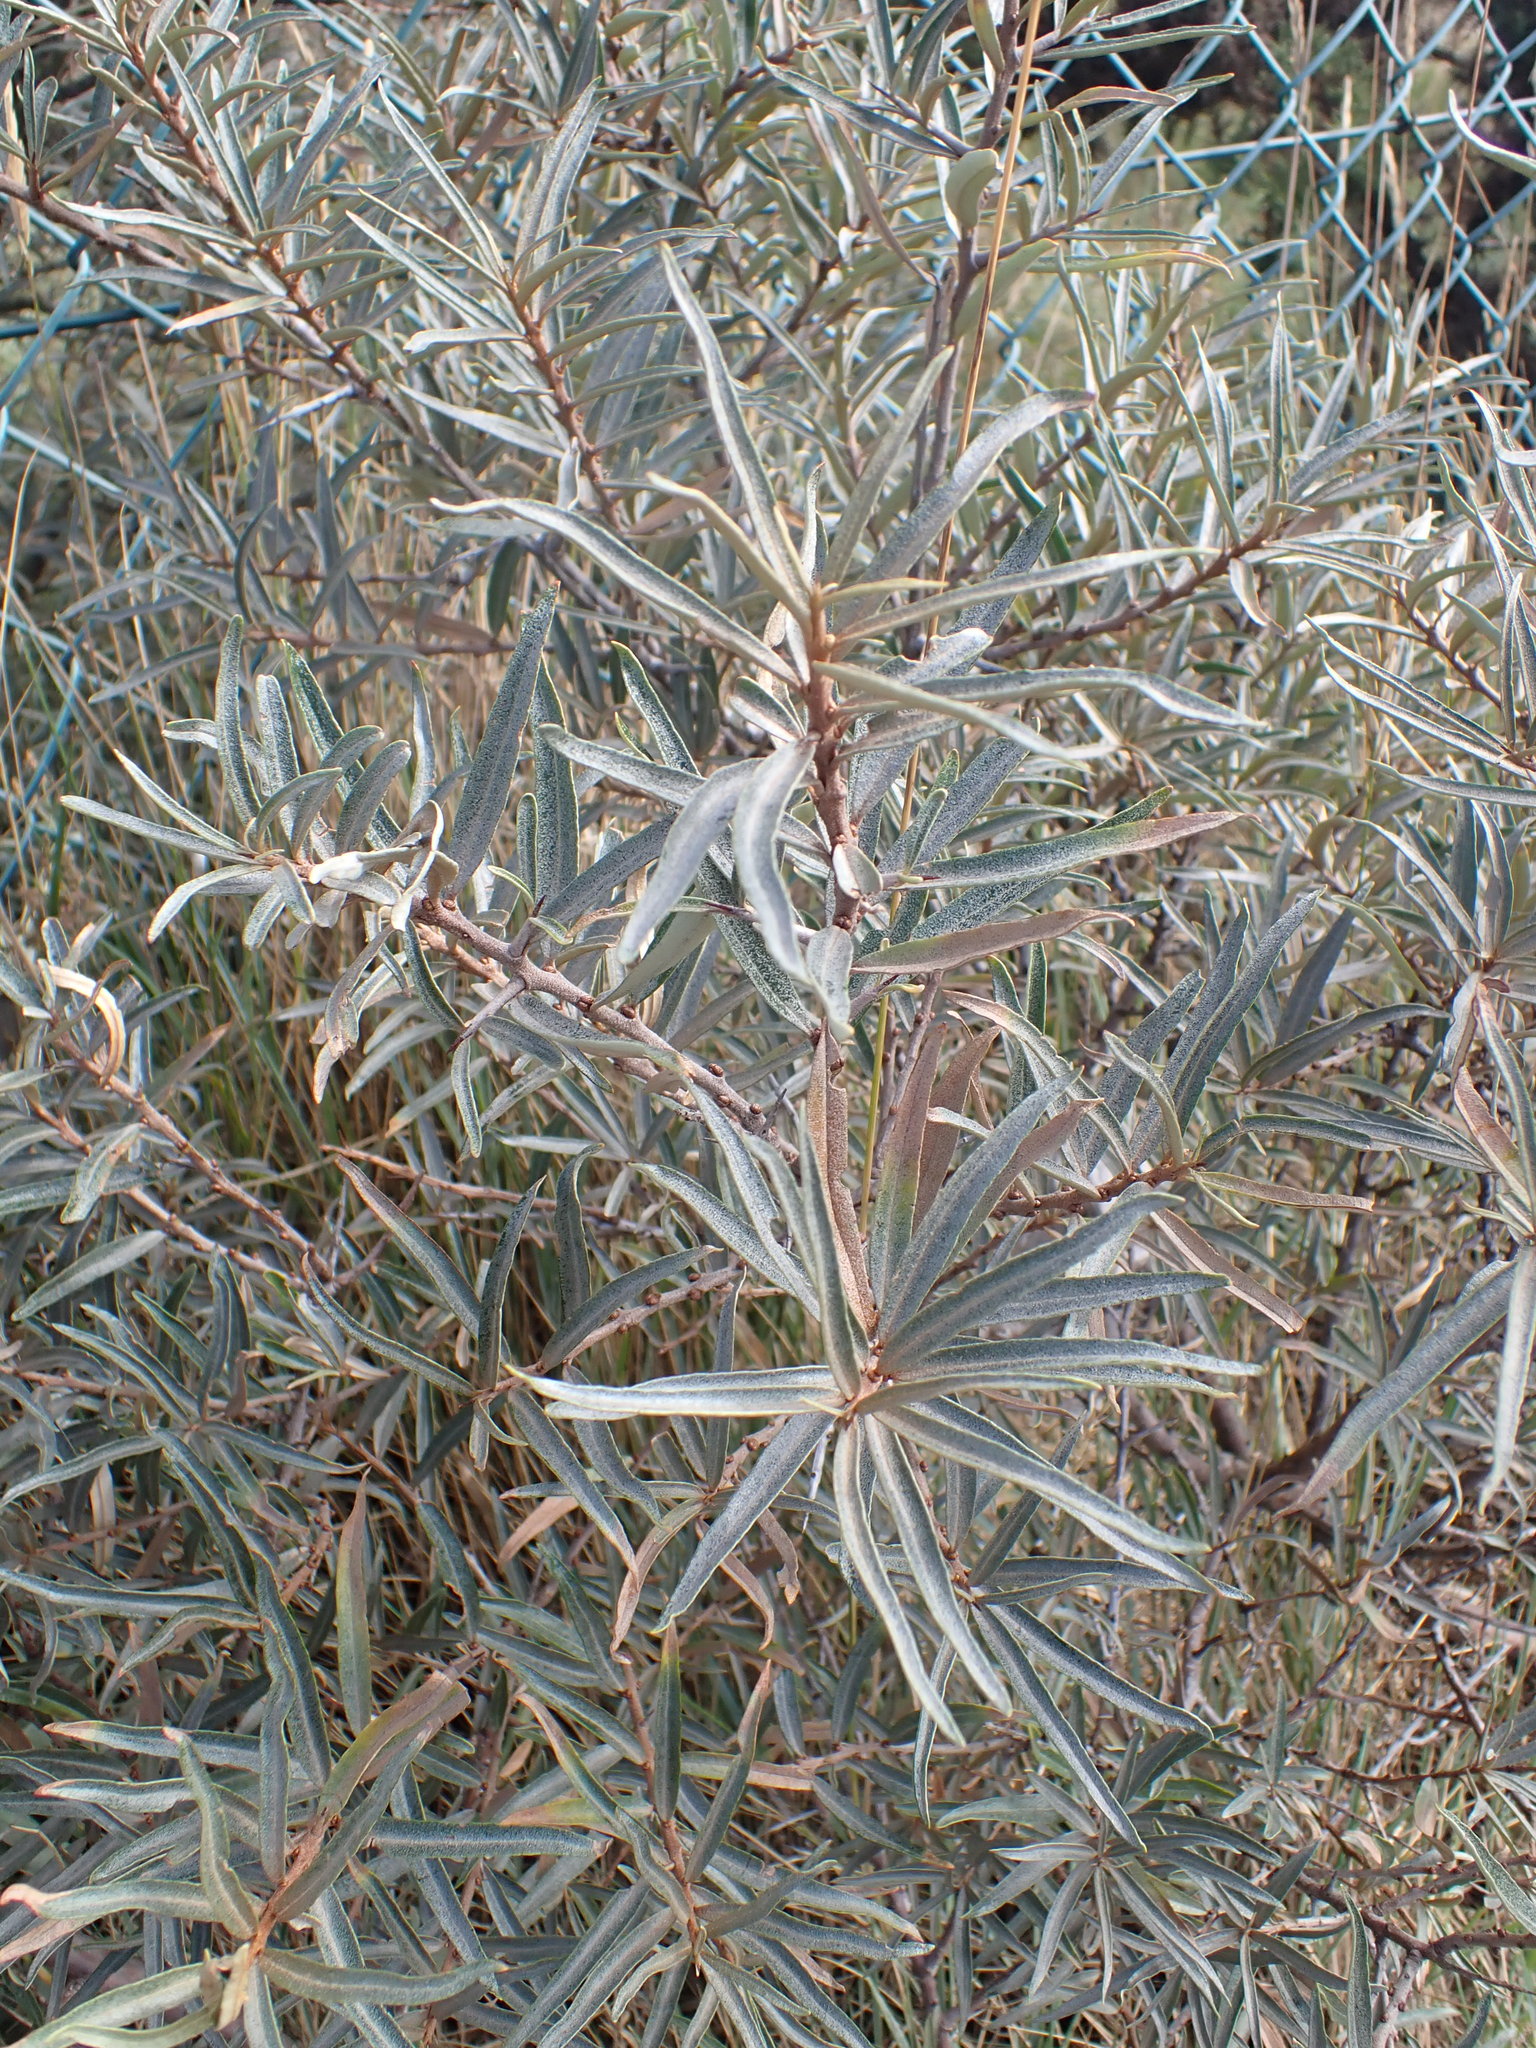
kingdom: Plantae
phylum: Tracheophyta
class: Magnoliopsida
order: Rosales
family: Elaeagnaceae
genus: Hippophae
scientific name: Hippophae rhamnoides
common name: Sea-buckthorn
